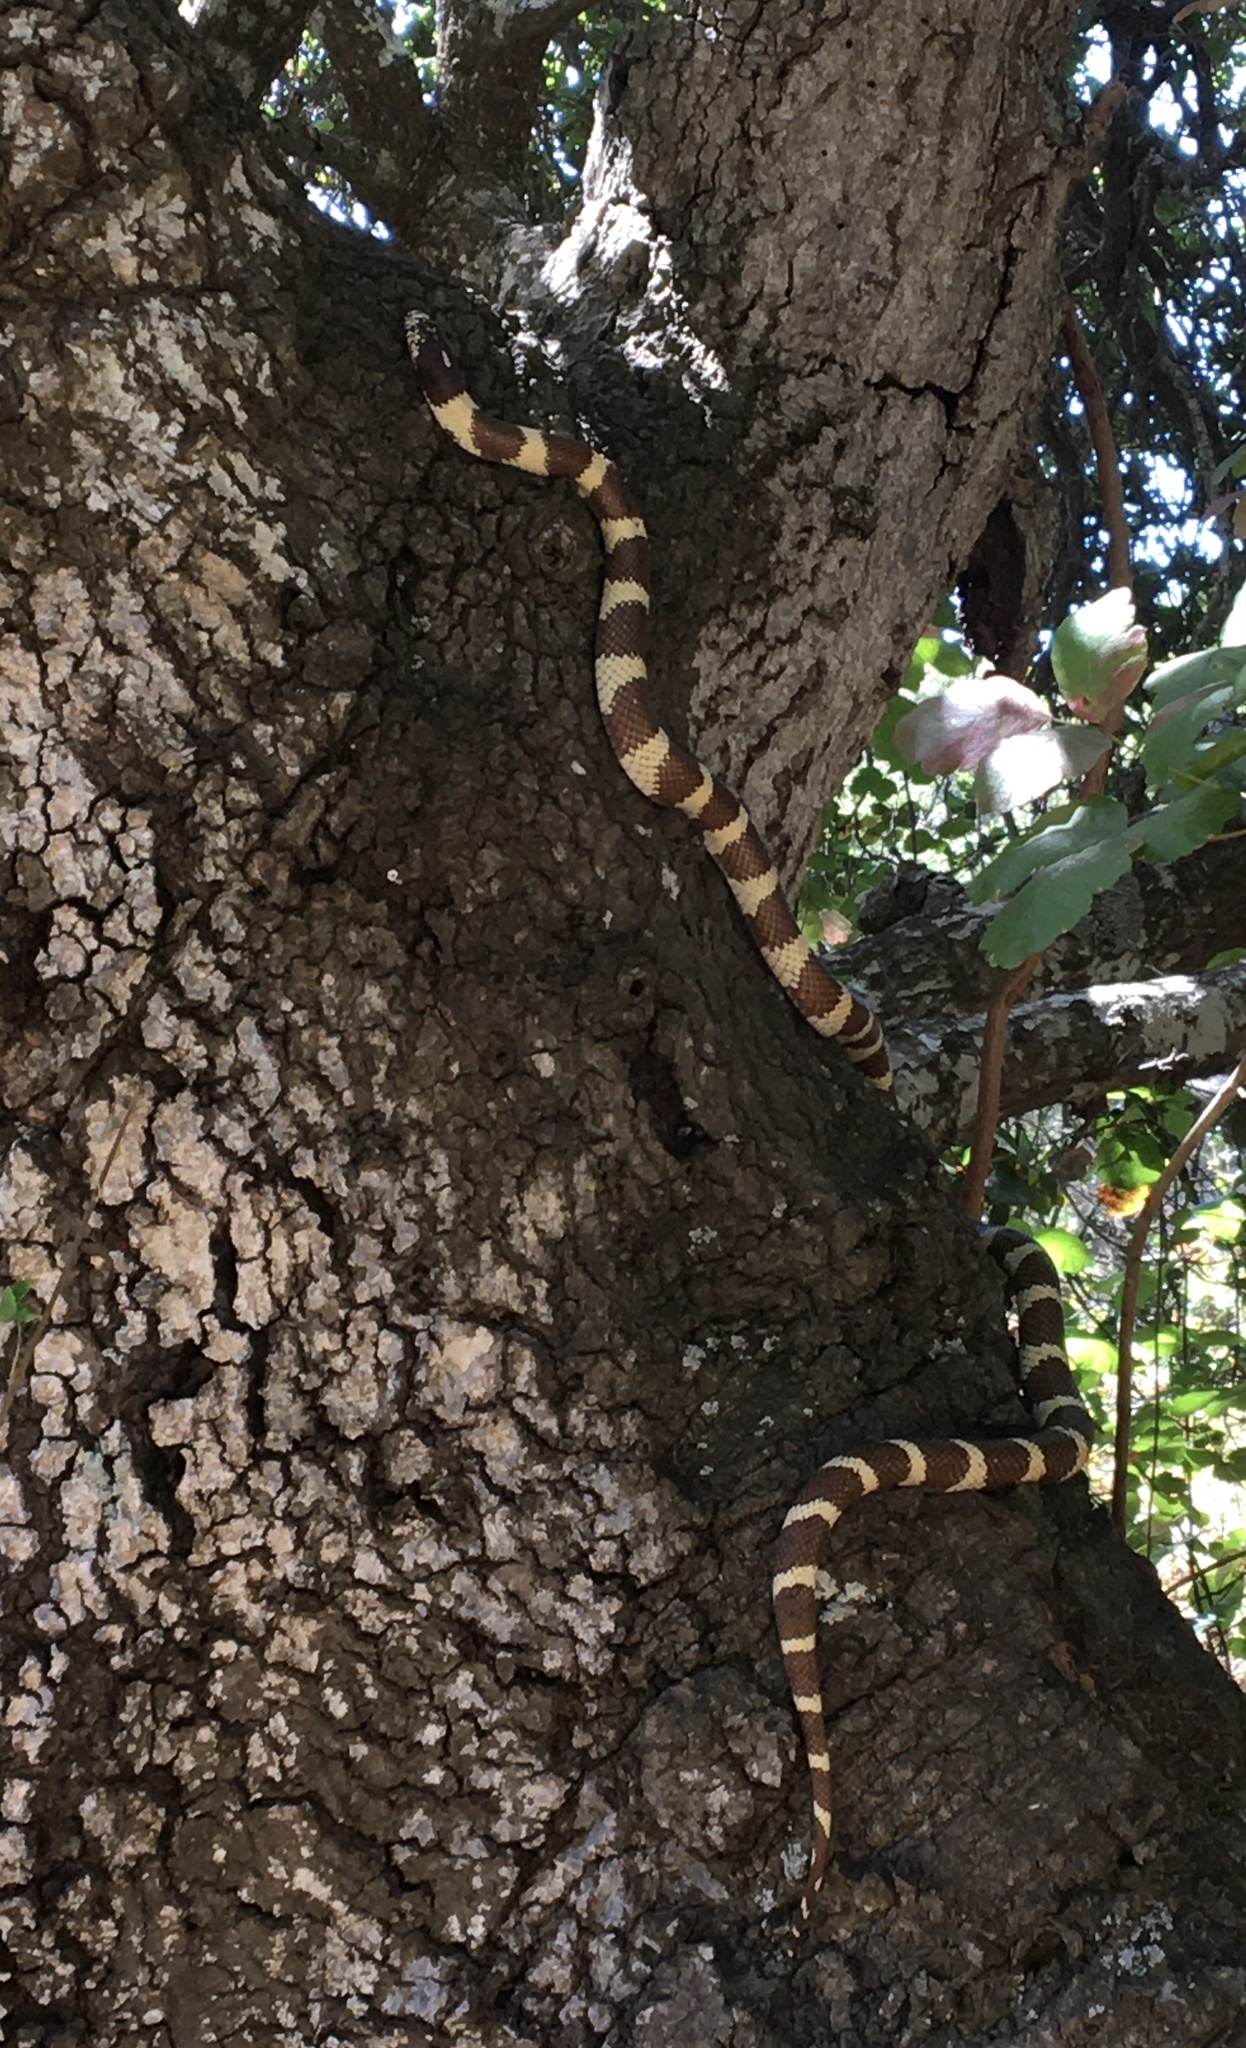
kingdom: Animalia
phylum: Chordata
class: Squamata
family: Colubridae
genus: Lampropeltis
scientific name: Lampropeltis californiae
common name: California kingsnake
